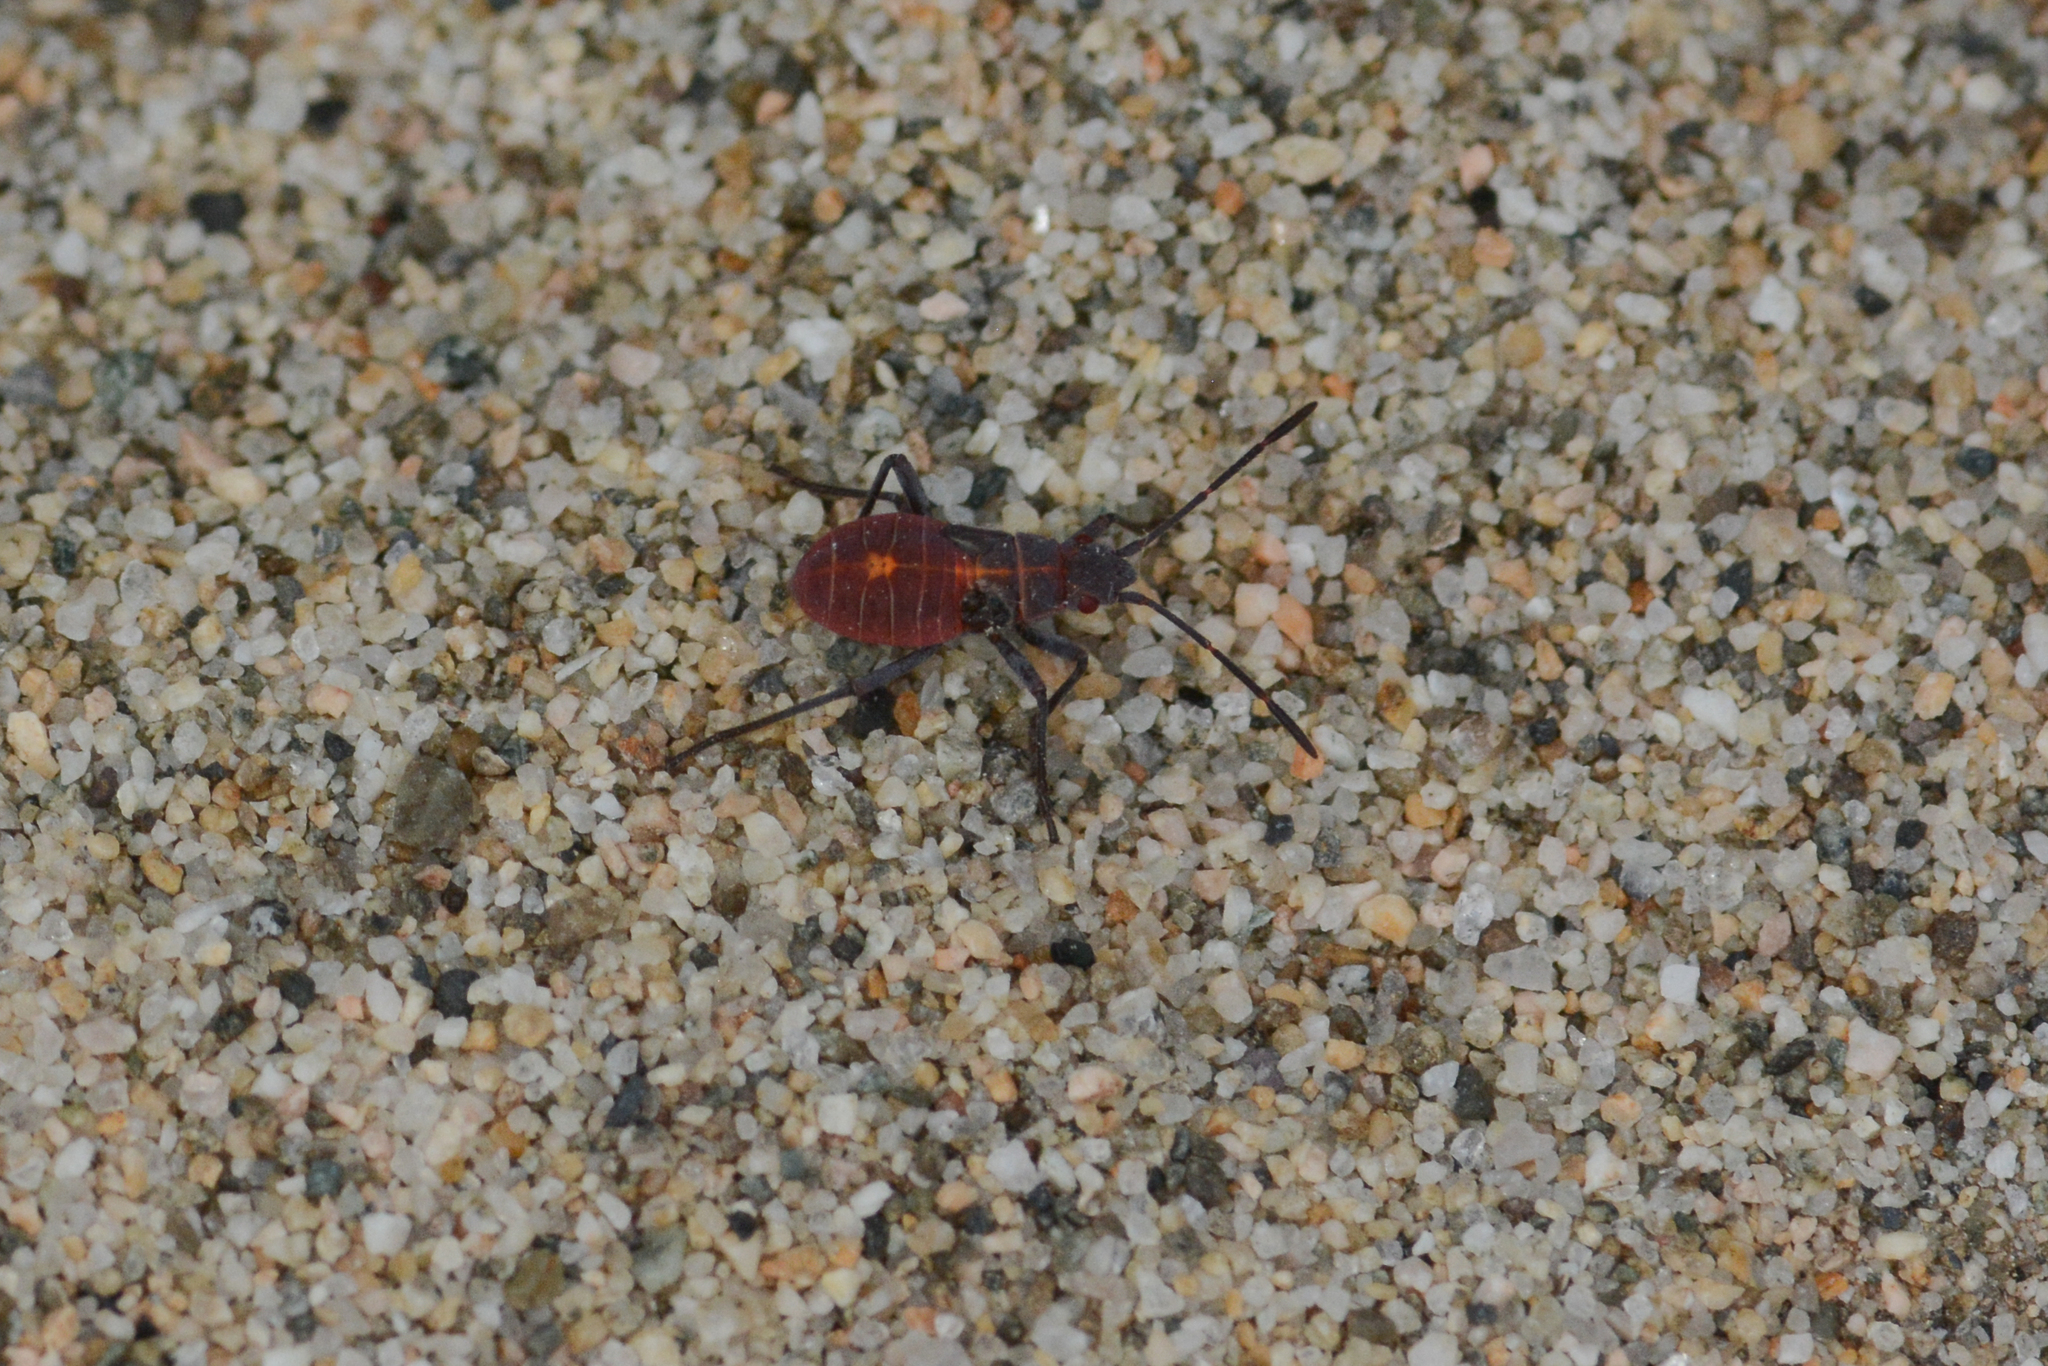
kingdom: Animalia
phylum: Arthropoda
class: Insecta
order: Hemiptera
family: Rhopalidae
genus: Boisea
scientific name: Boisea rubrolineata
